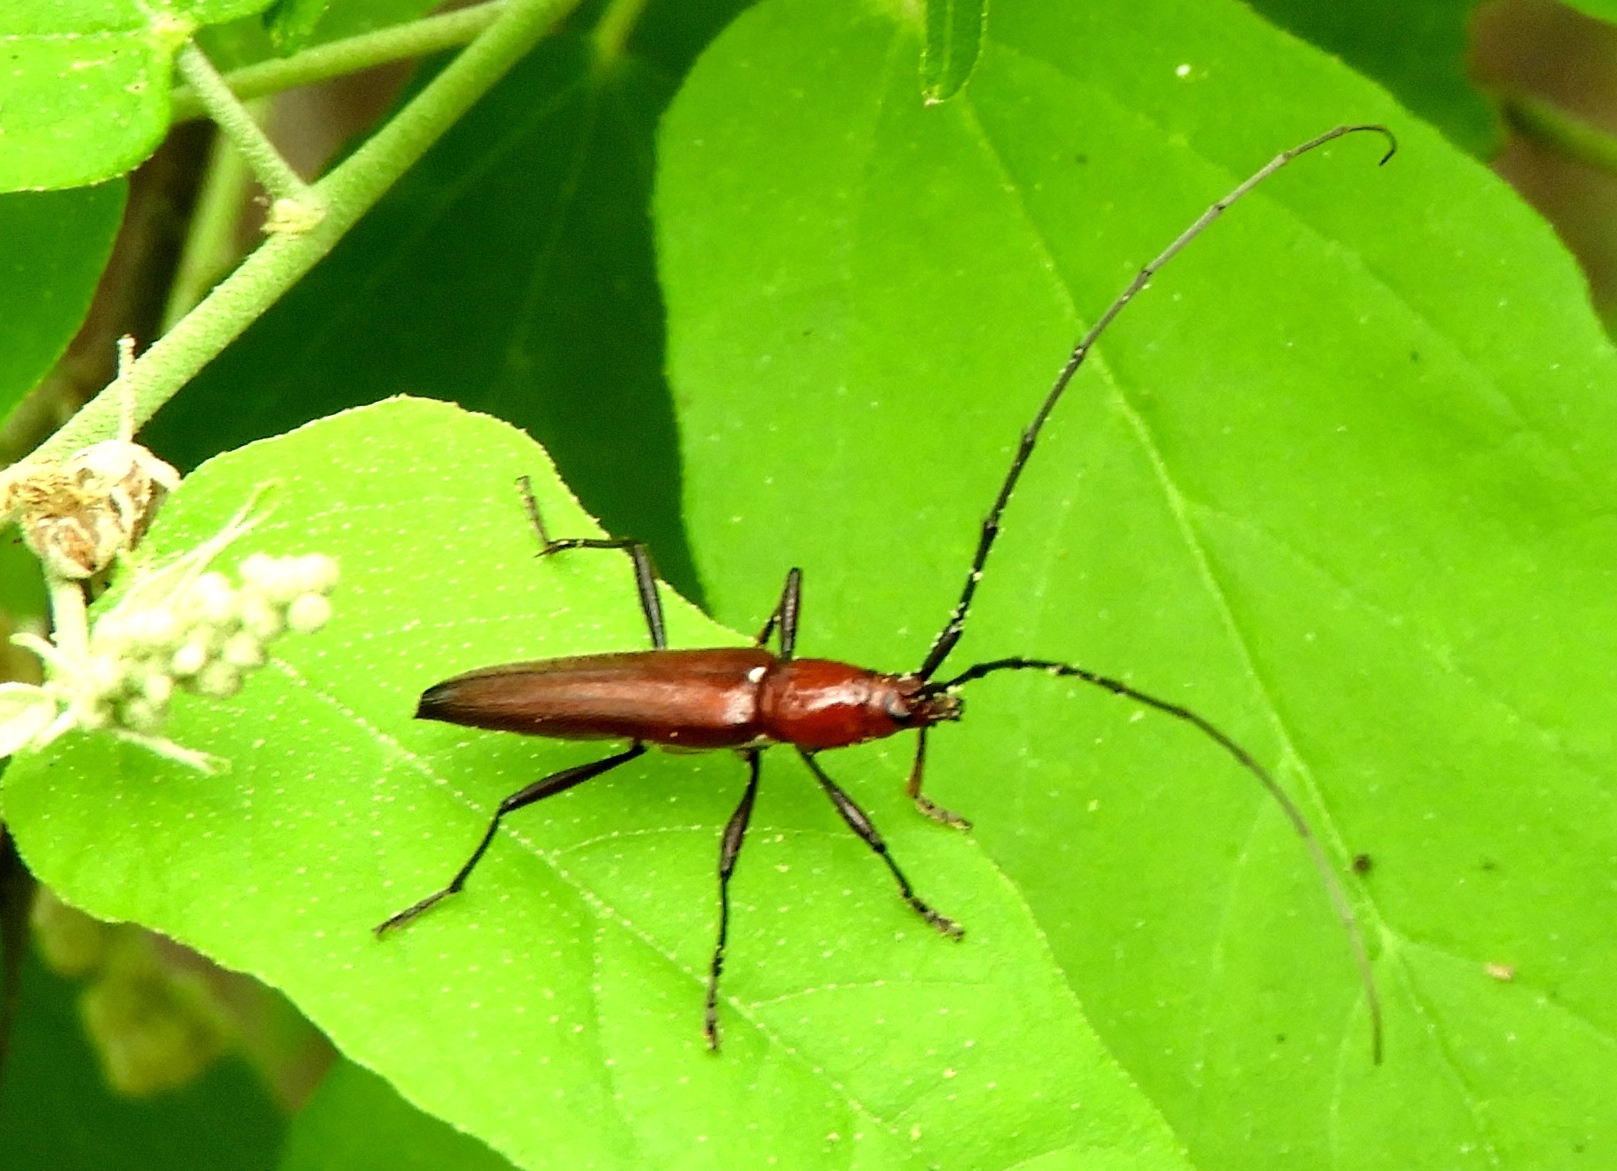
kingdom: Animalia
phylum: Arthropoda
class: Insecta
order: Coleoptera
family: Cerambycidae
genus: Stenosphenus
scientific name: Stenosphenus rubidus
